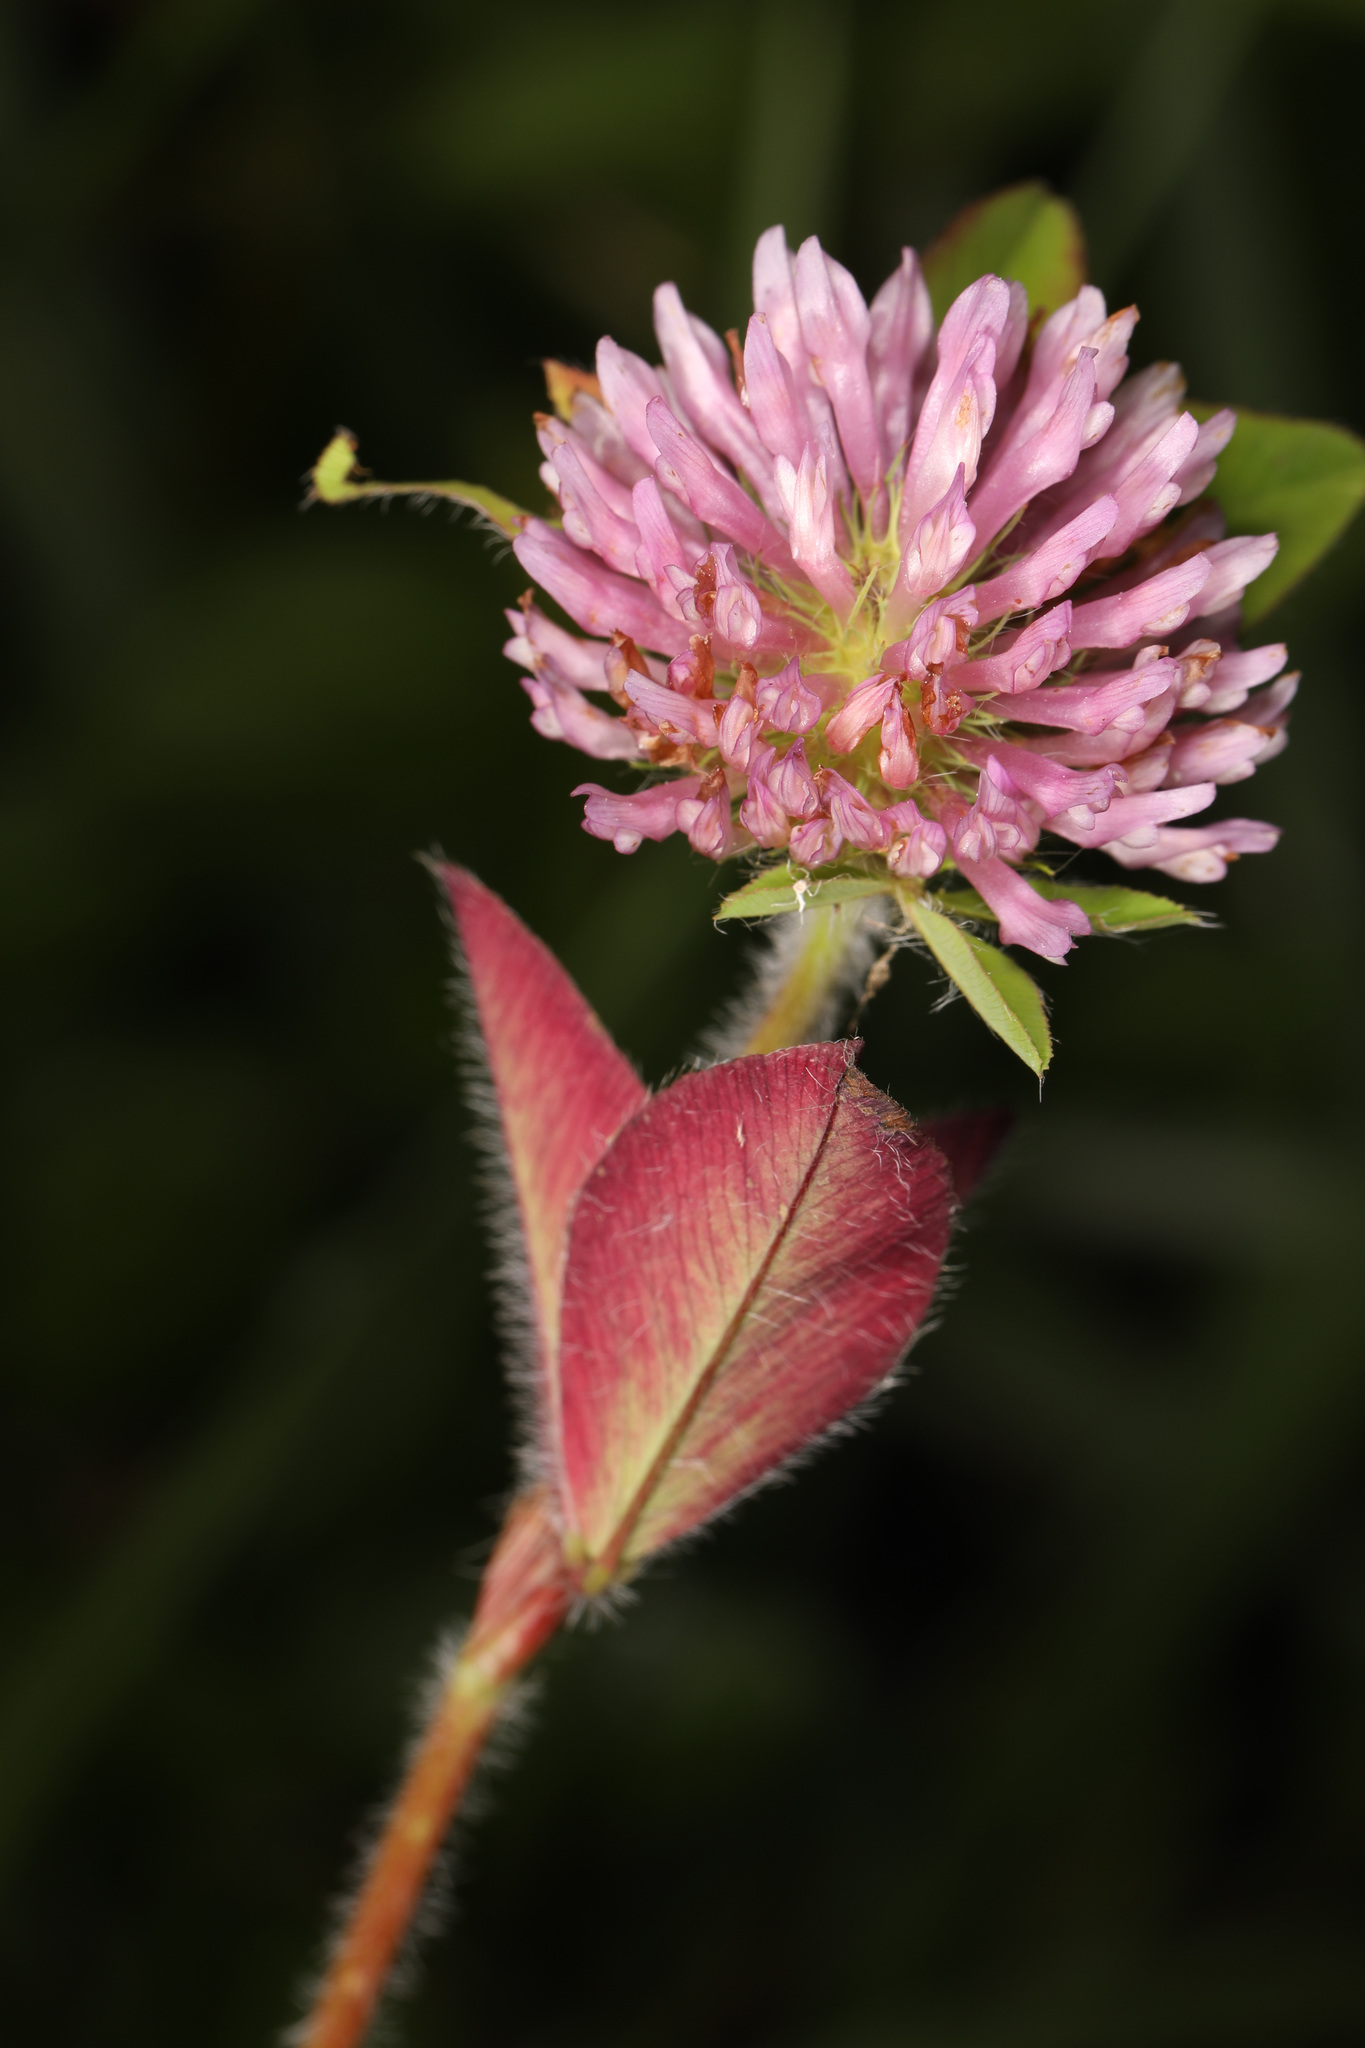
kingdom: Plantae
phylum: Tracheophyta
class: Magnoliopsida
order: Fabales
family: Fabaceae
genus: Trifolium
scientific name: Trifolium pratense
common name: Red clover
